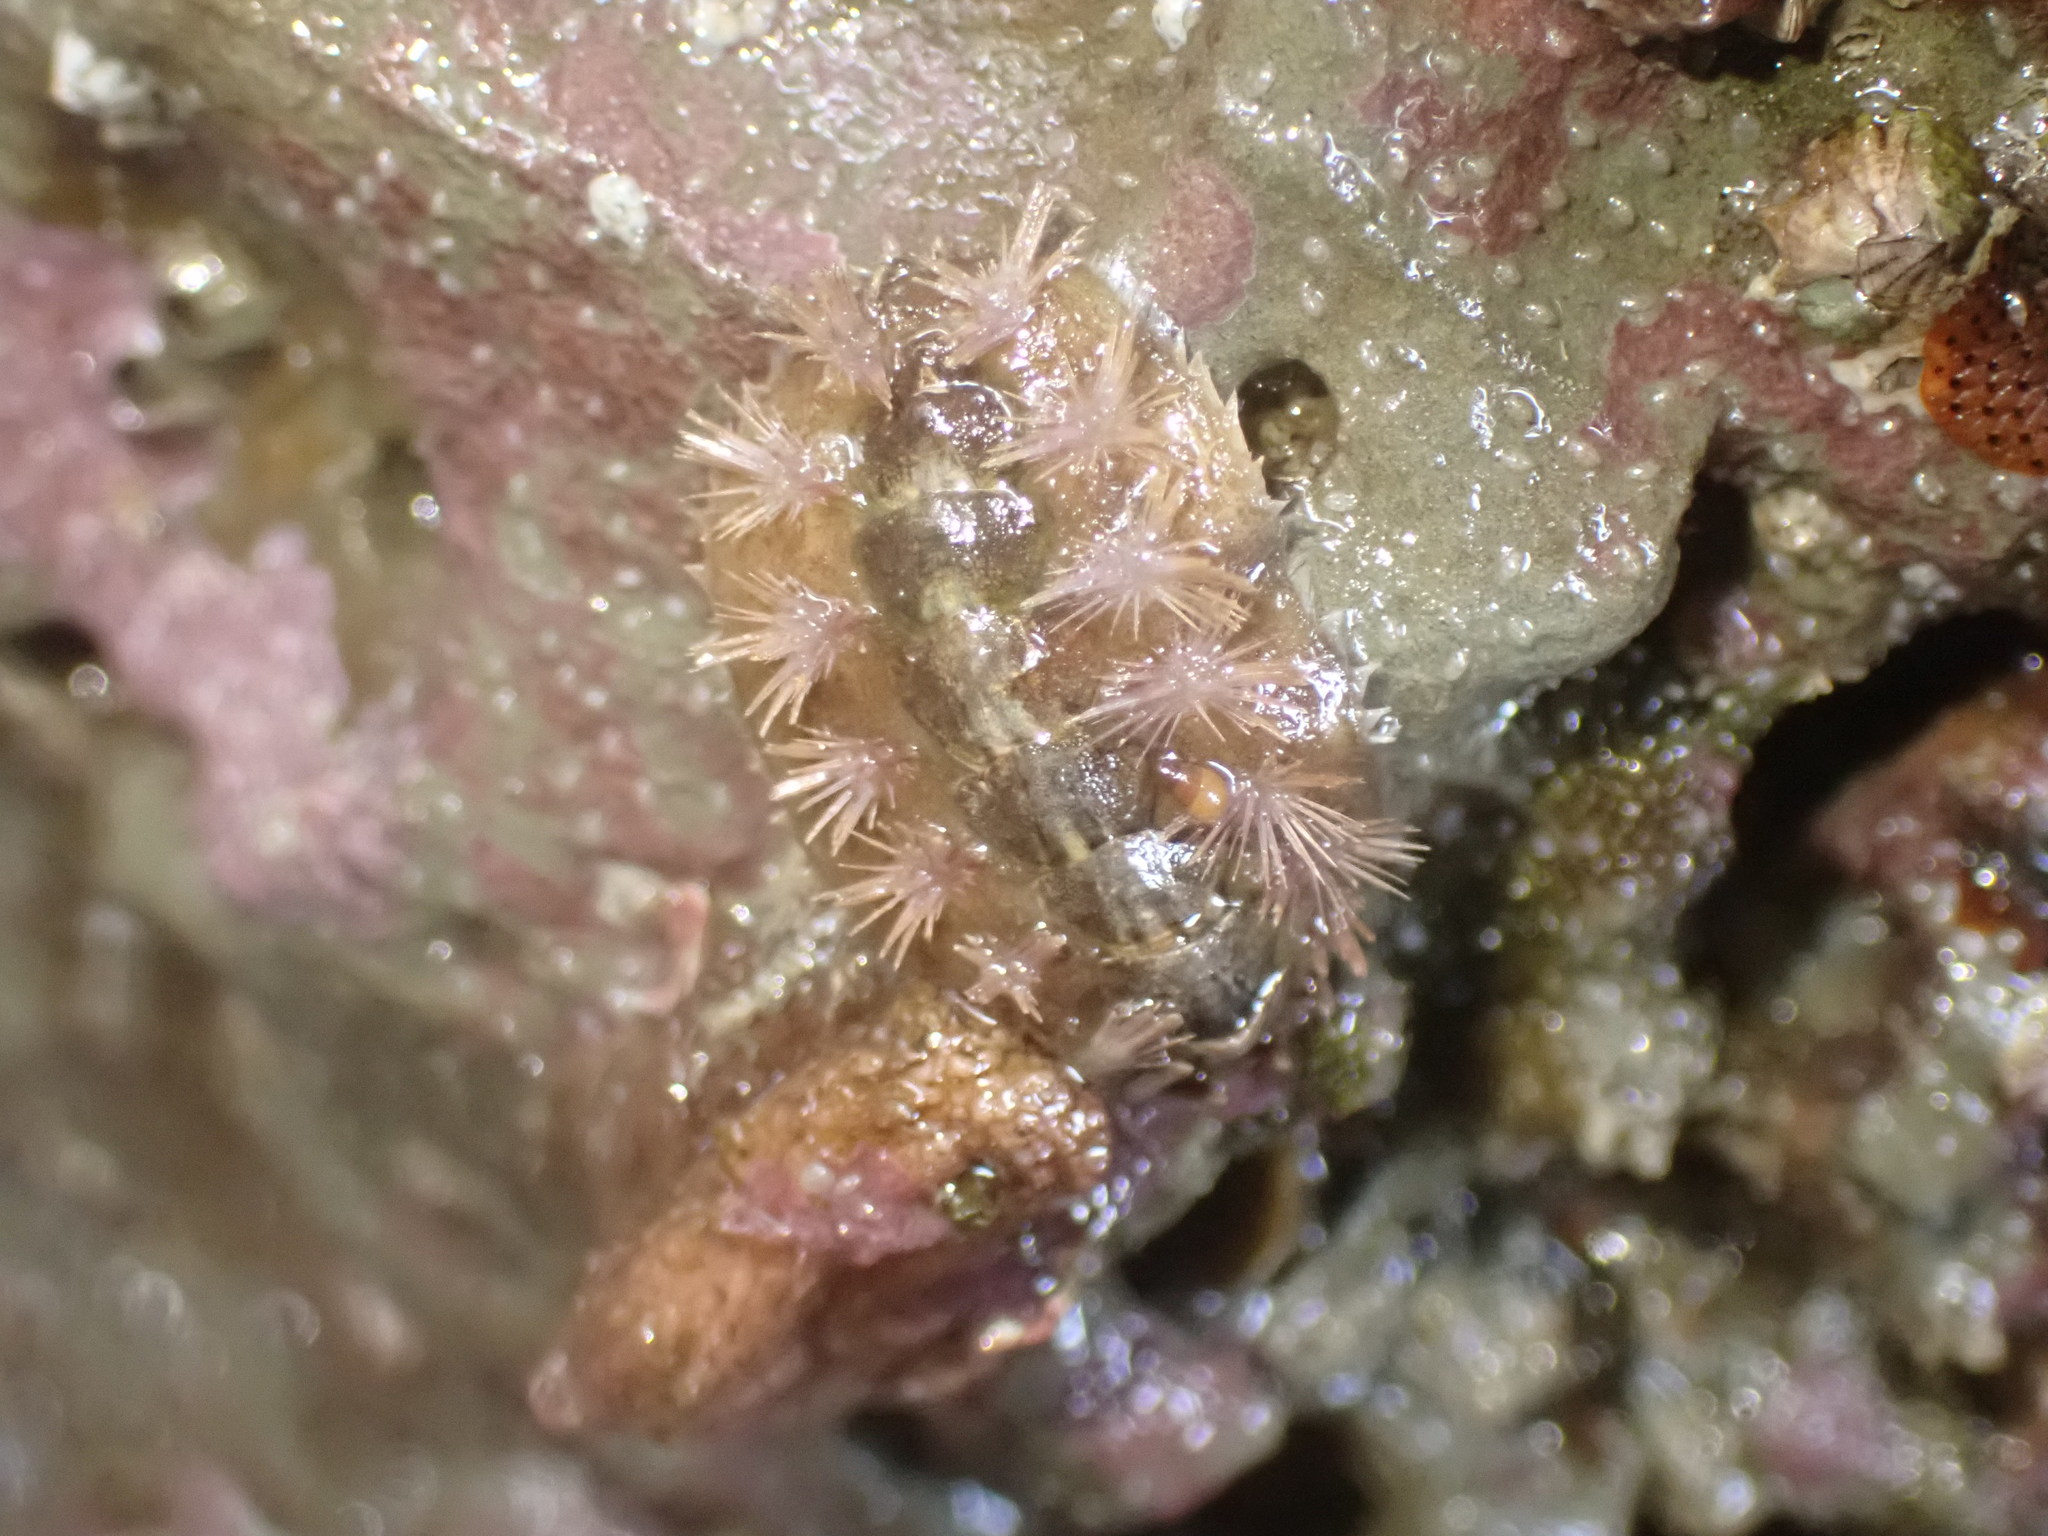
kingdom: Animalia
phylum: Mollusca
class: Polyplacophora
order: Chitonida
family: Acanthochitonidae
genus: Acanthochitona
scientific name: Acanthochitona zelandica
